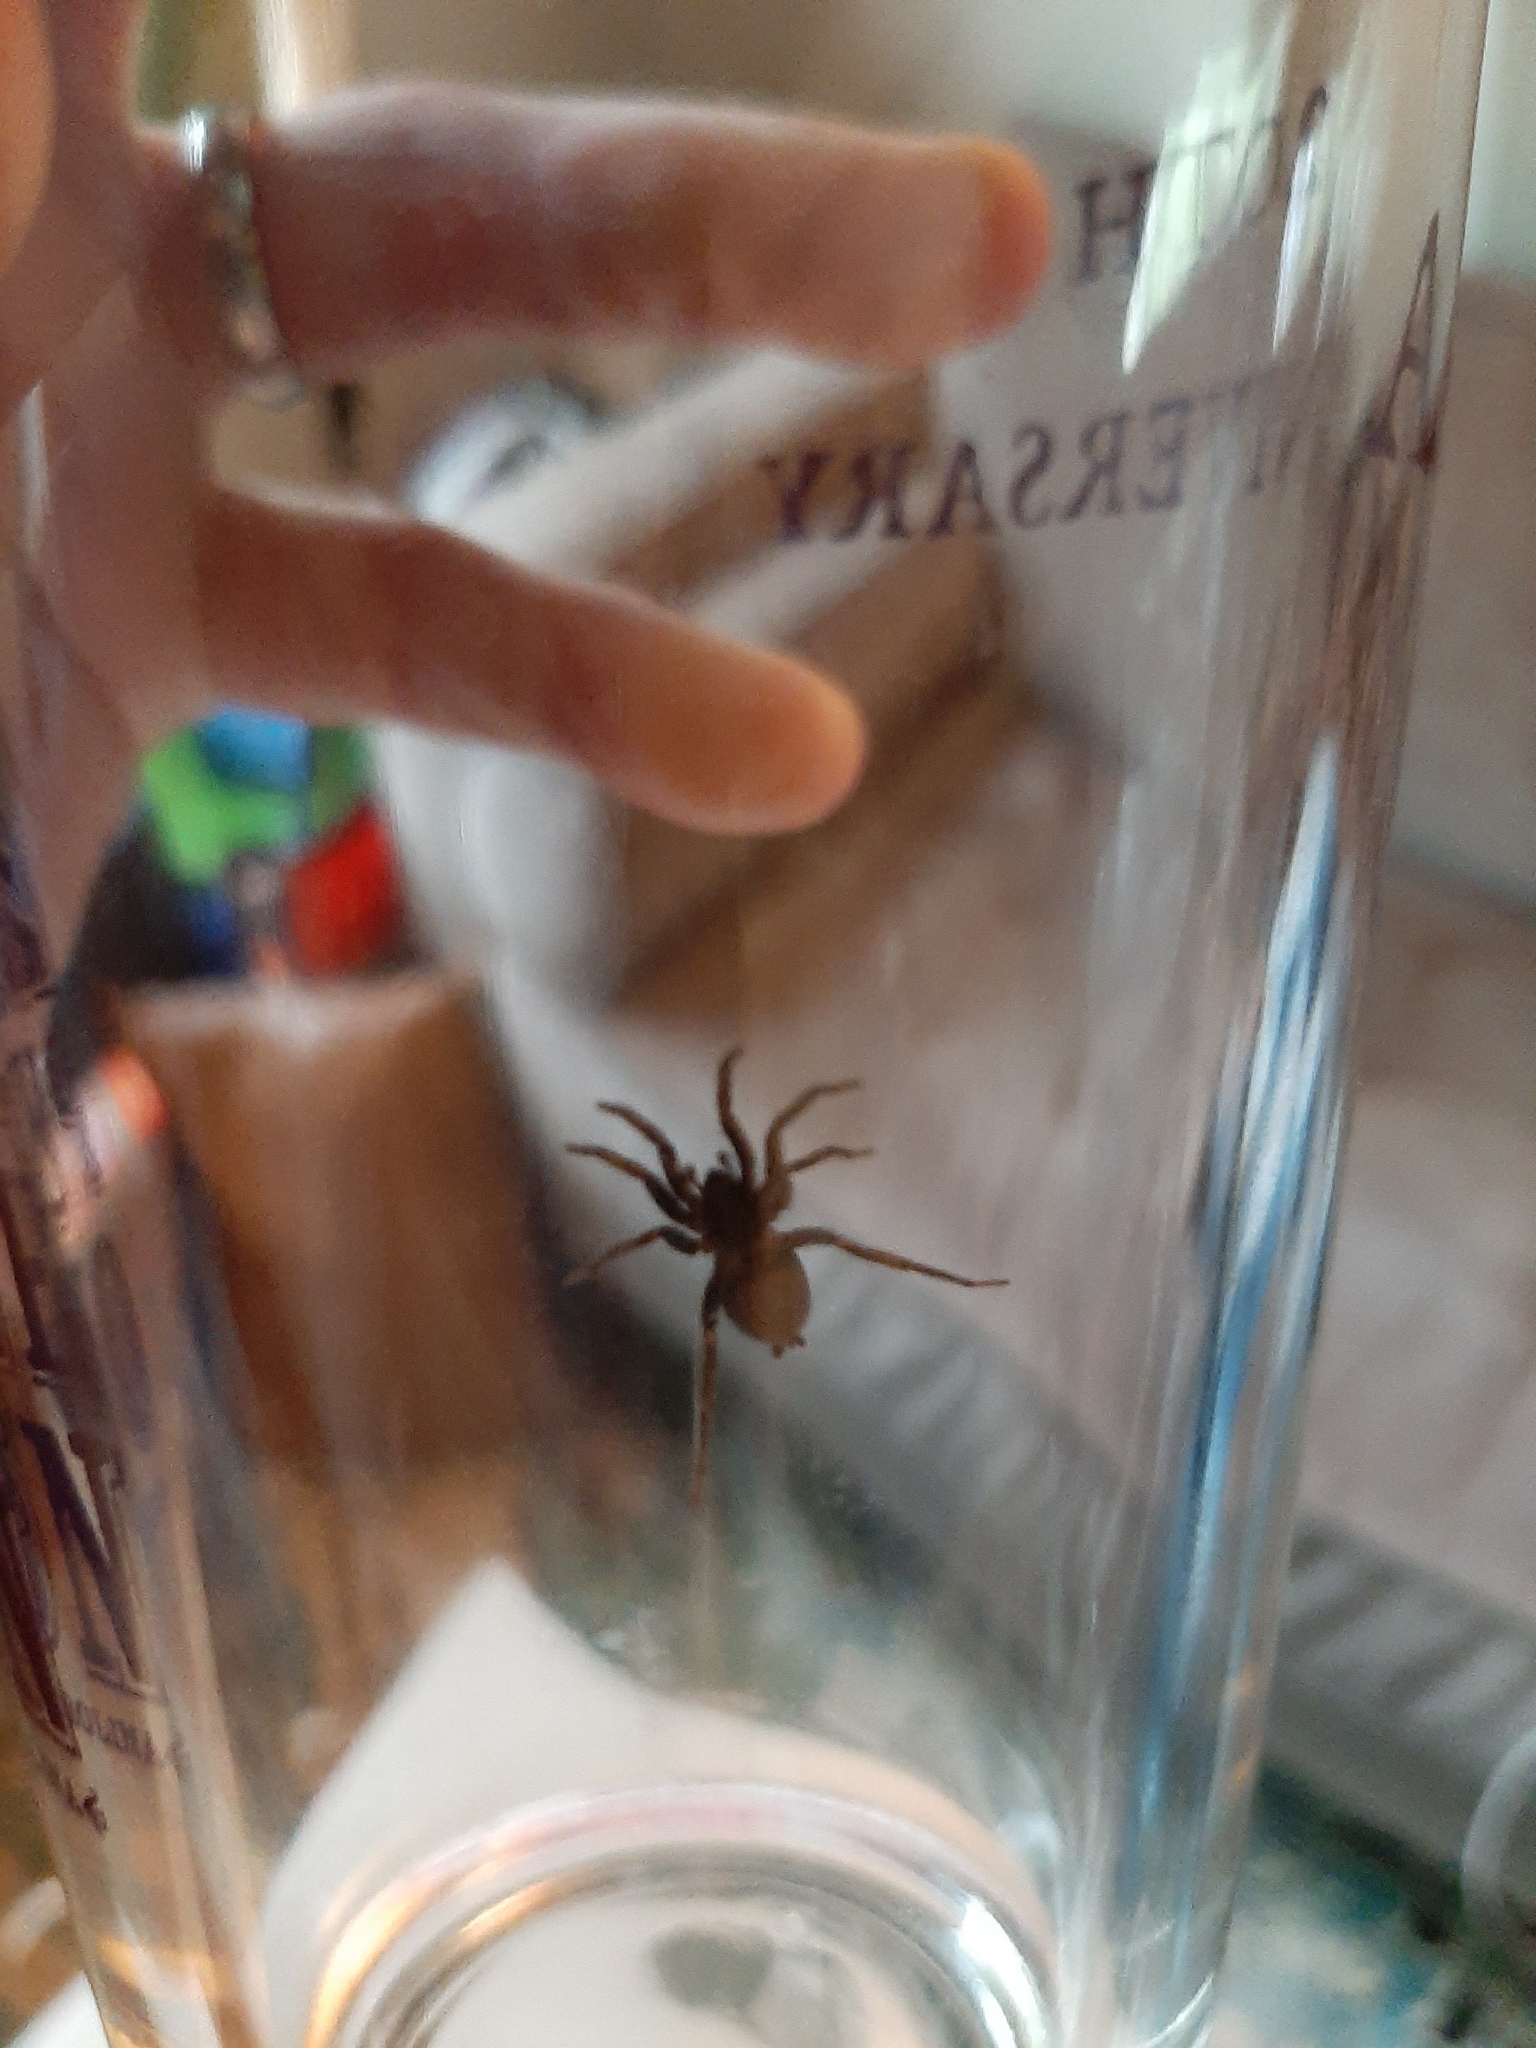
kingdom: Animalia
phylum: Arthropoda
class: Arachnida
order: Araneae
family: Gnaphosidae
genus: Herpyllus
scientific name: Herpyllus ecclesiasticus
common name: Eastern parson spider
